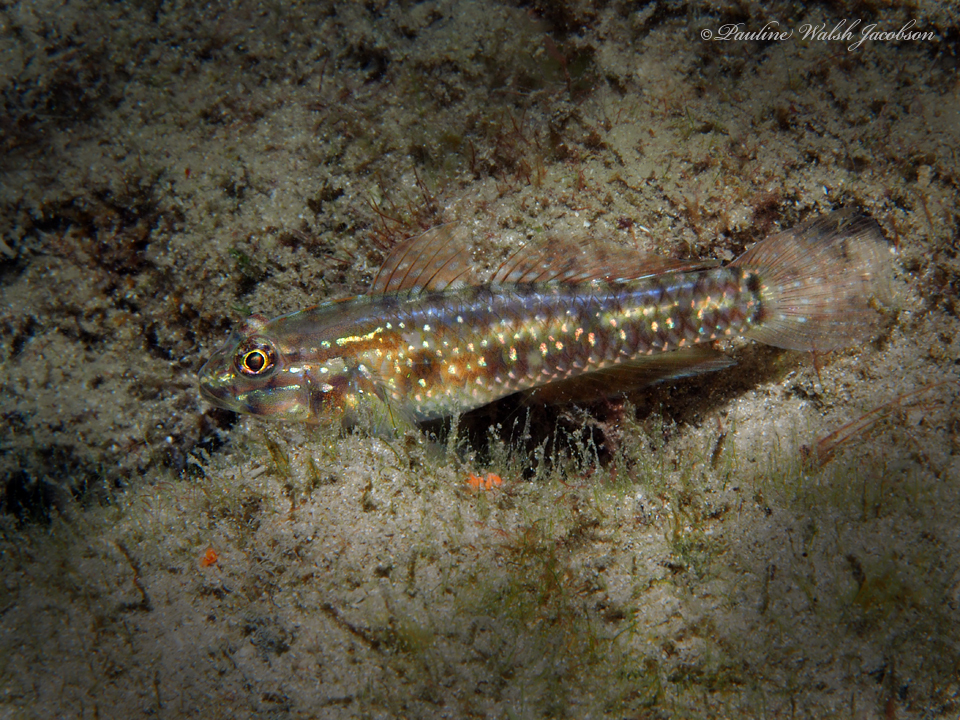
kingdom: Animalia
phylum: Chordata
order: Perciformes
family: Gobiidae
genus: Coryphopterus
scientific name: Coryphopterus glaucofraenum
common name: Bridled goby
